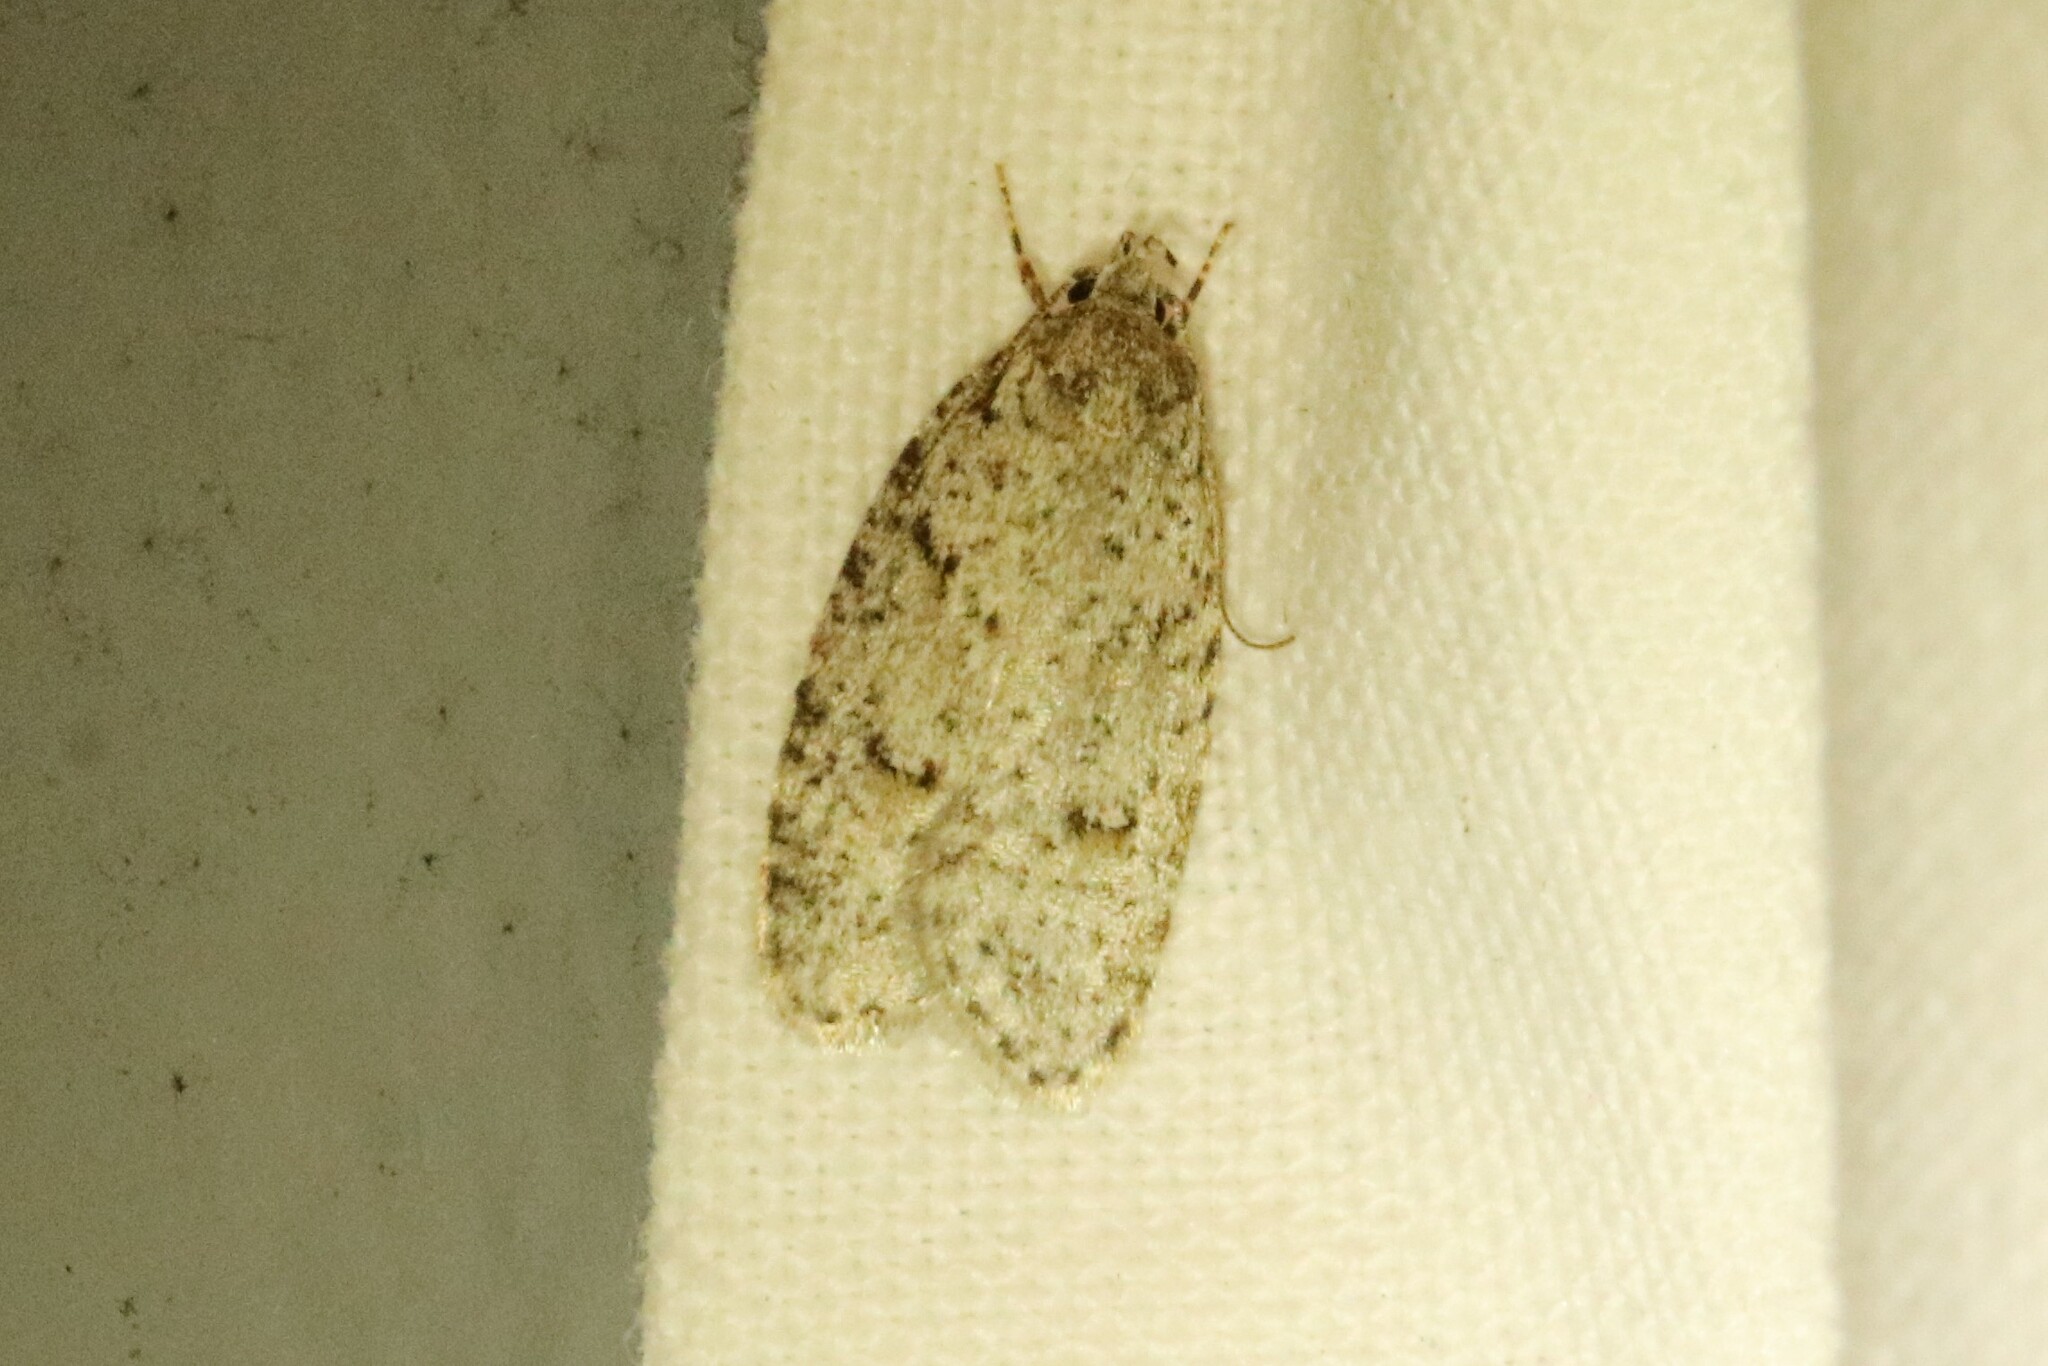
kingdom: Animalia
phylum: Arthropoda
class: Insecta
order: Lepidoptera
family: Depressariidae
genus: Bibarrambla
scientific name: Bibarrambla allenella
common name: Bog bibarrambla moth
